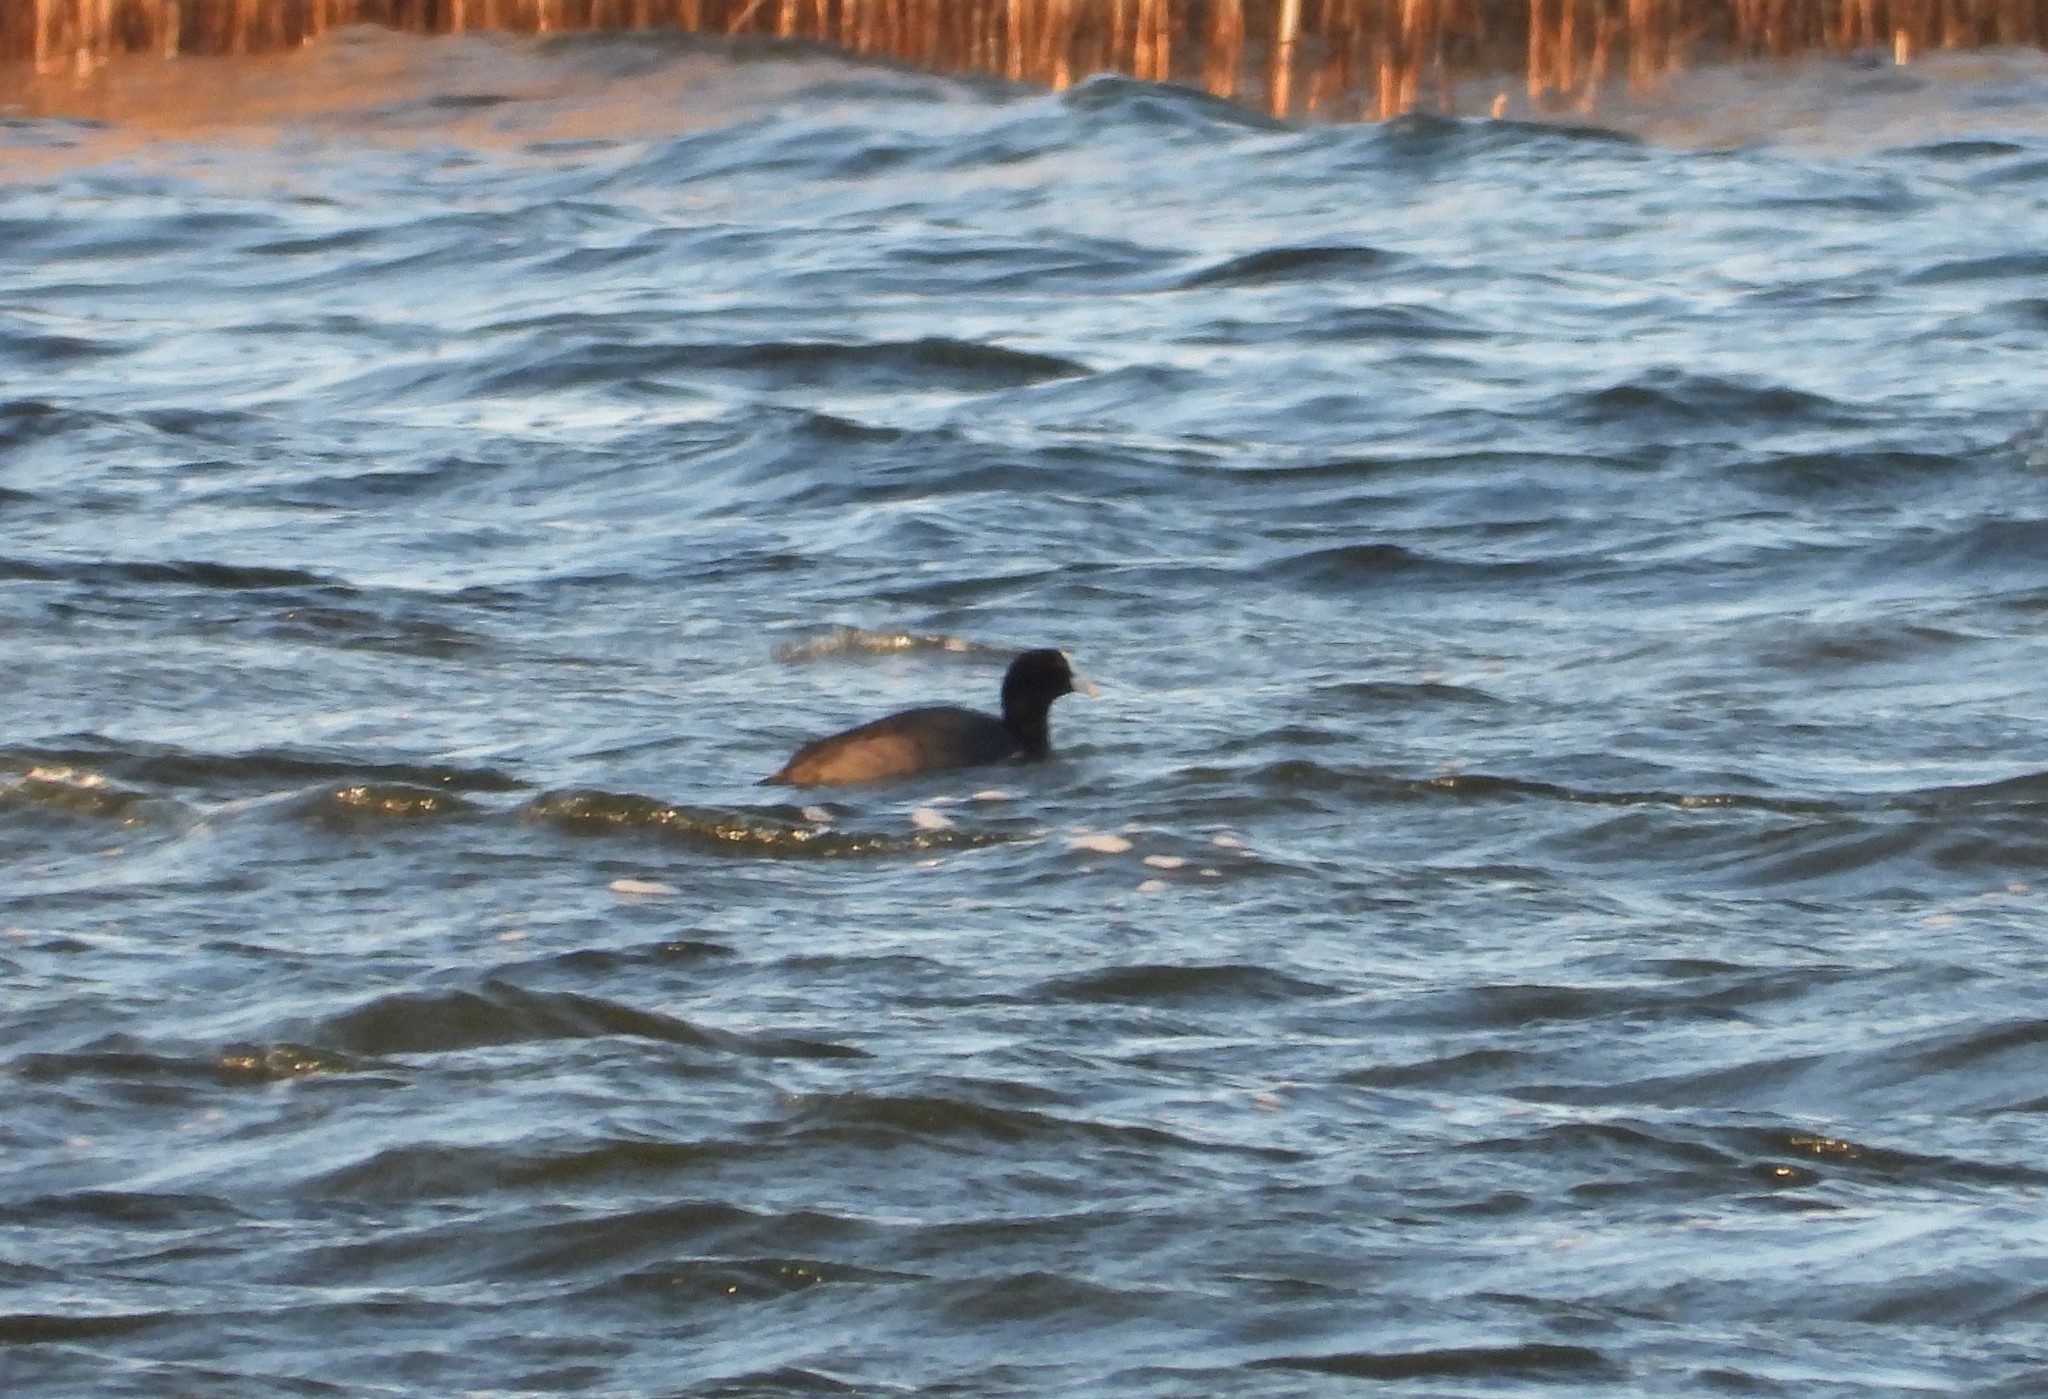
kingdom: Animalia
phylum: Chordata
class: Aves
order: Gruiformes
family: Rallidae
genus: Fulica
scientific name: Fulica atra
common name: Eurasian coot
